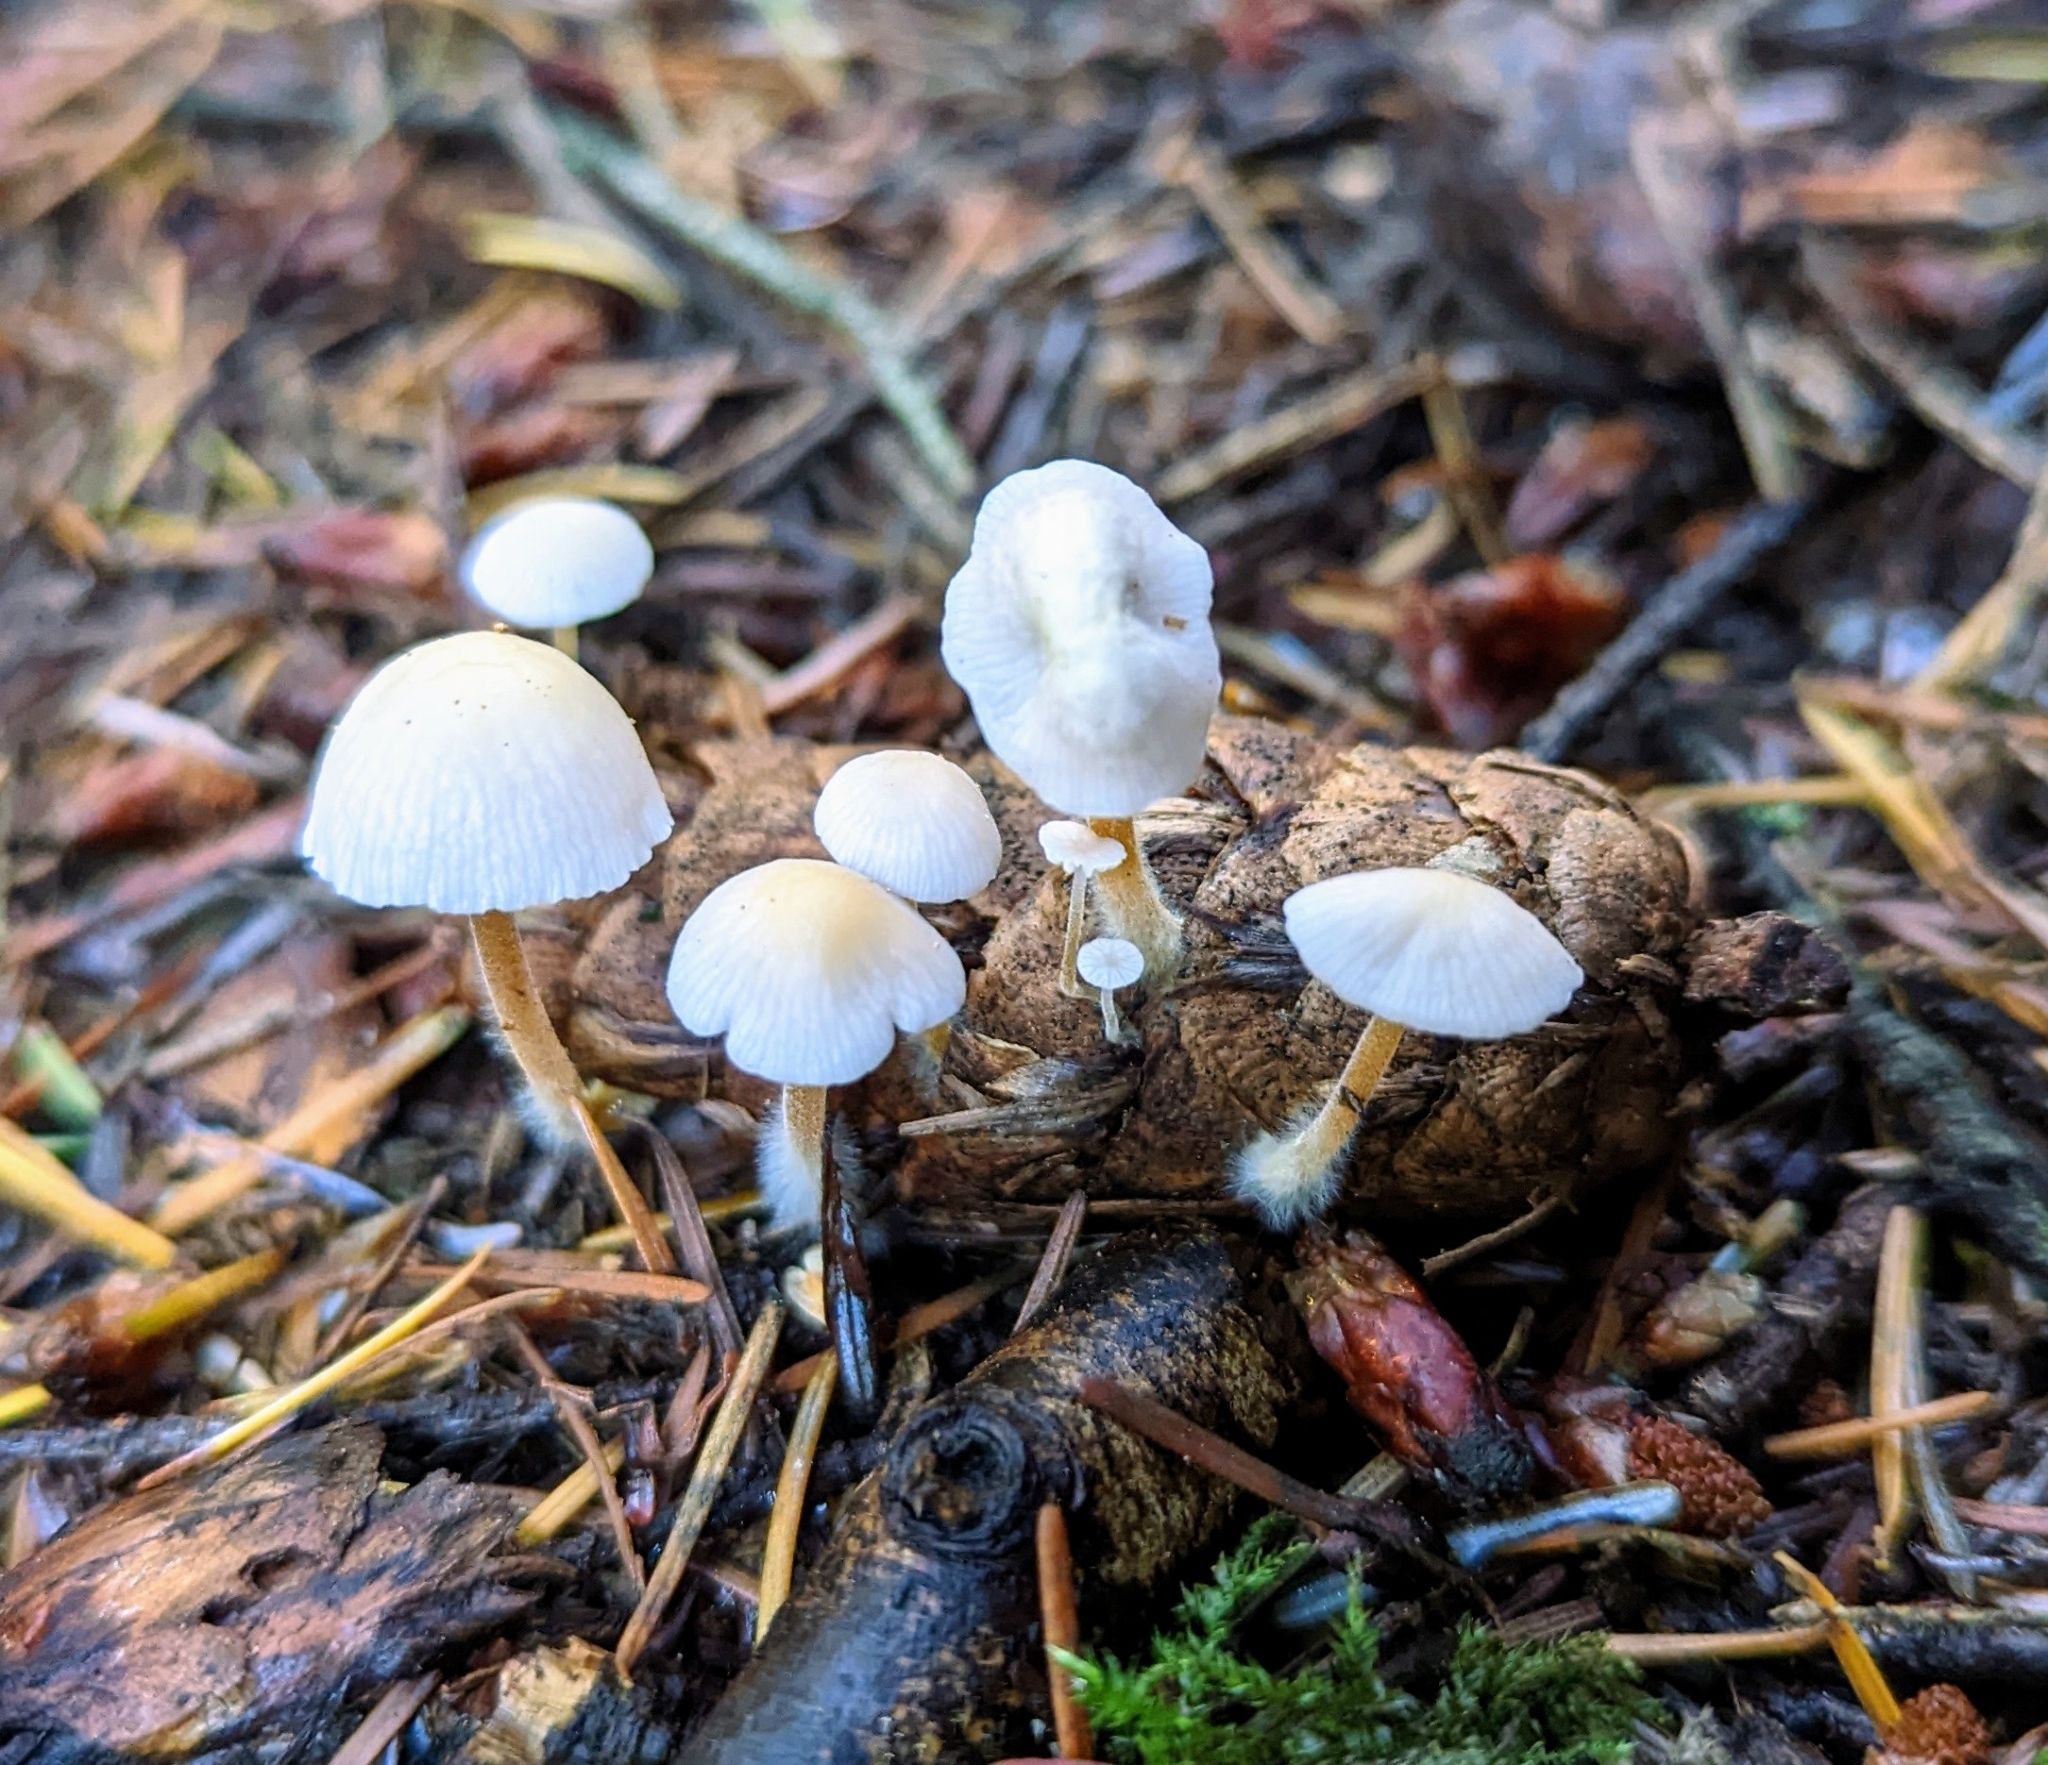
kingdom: Fungi
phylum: Basidiomycota
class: Agaricomycetes
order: Agaricales
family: Physalacriaceae
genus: Strobilurus
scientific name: Strobilurus trullisatus
